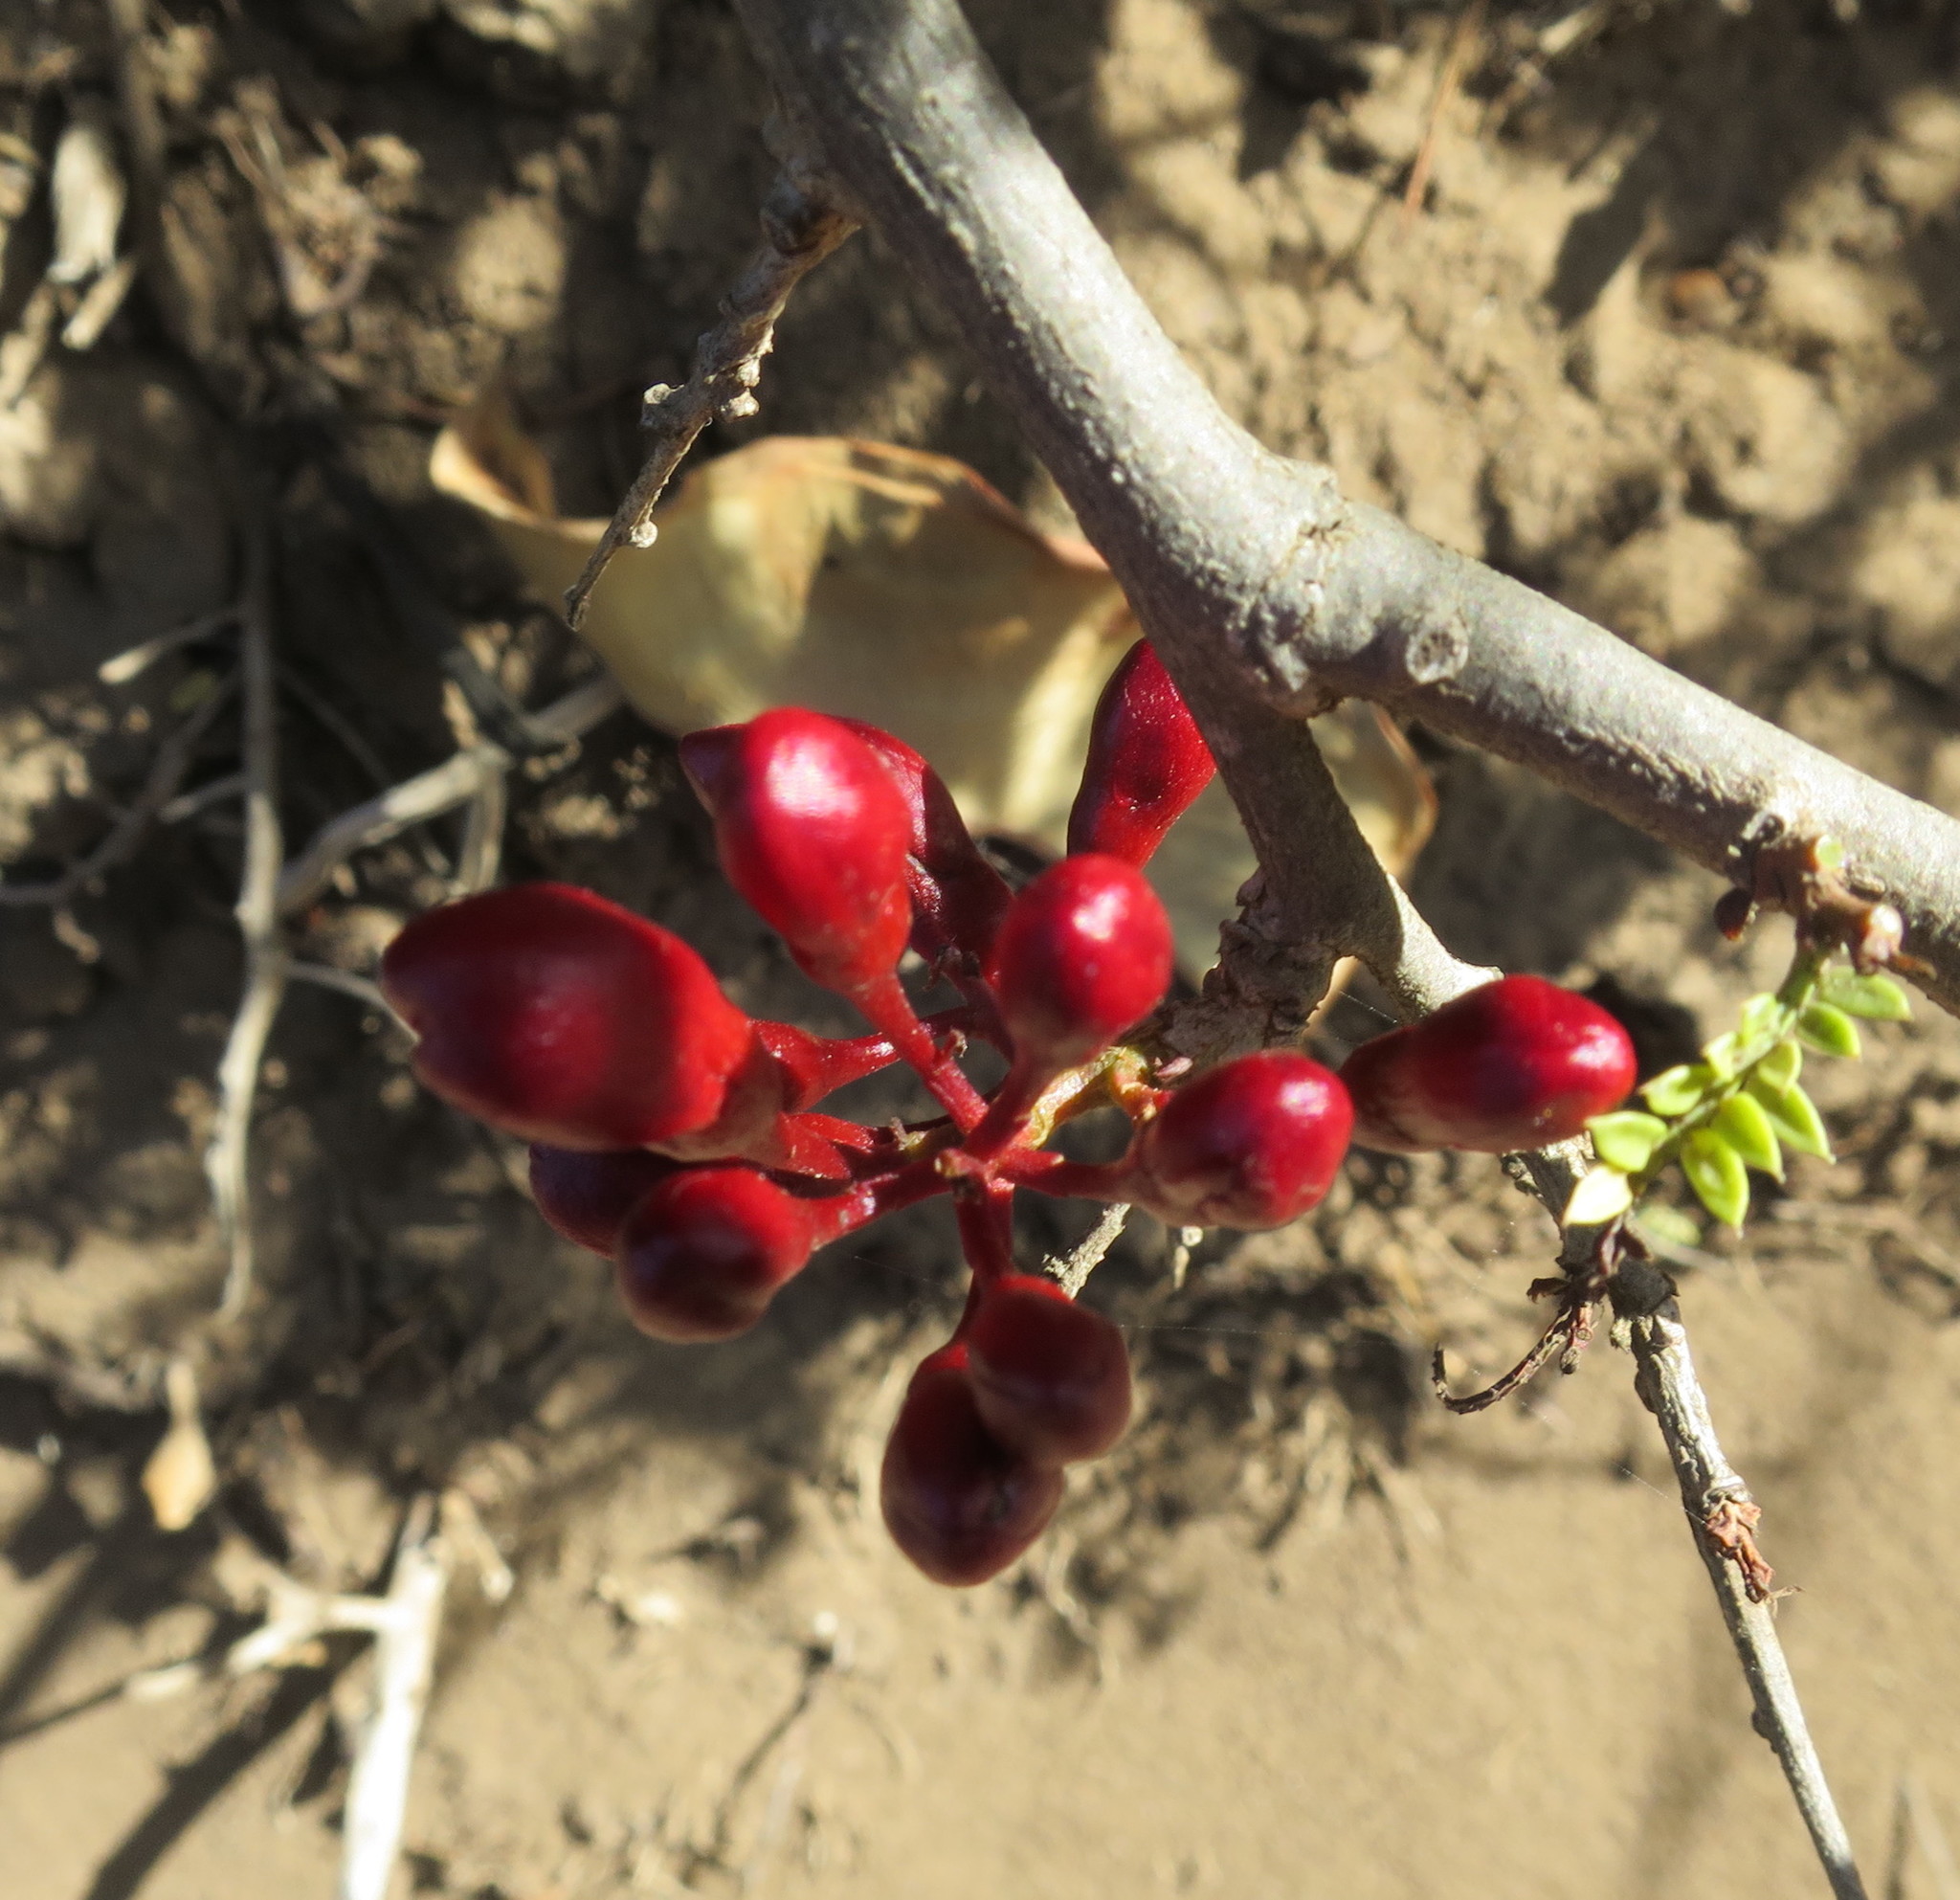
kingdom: Plantae
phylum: Tracheophyta
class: Magnoliopsida
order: Fabales
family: Fabaceae
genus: Schotia
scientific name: Schotia afra
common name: Hottentot's bean
